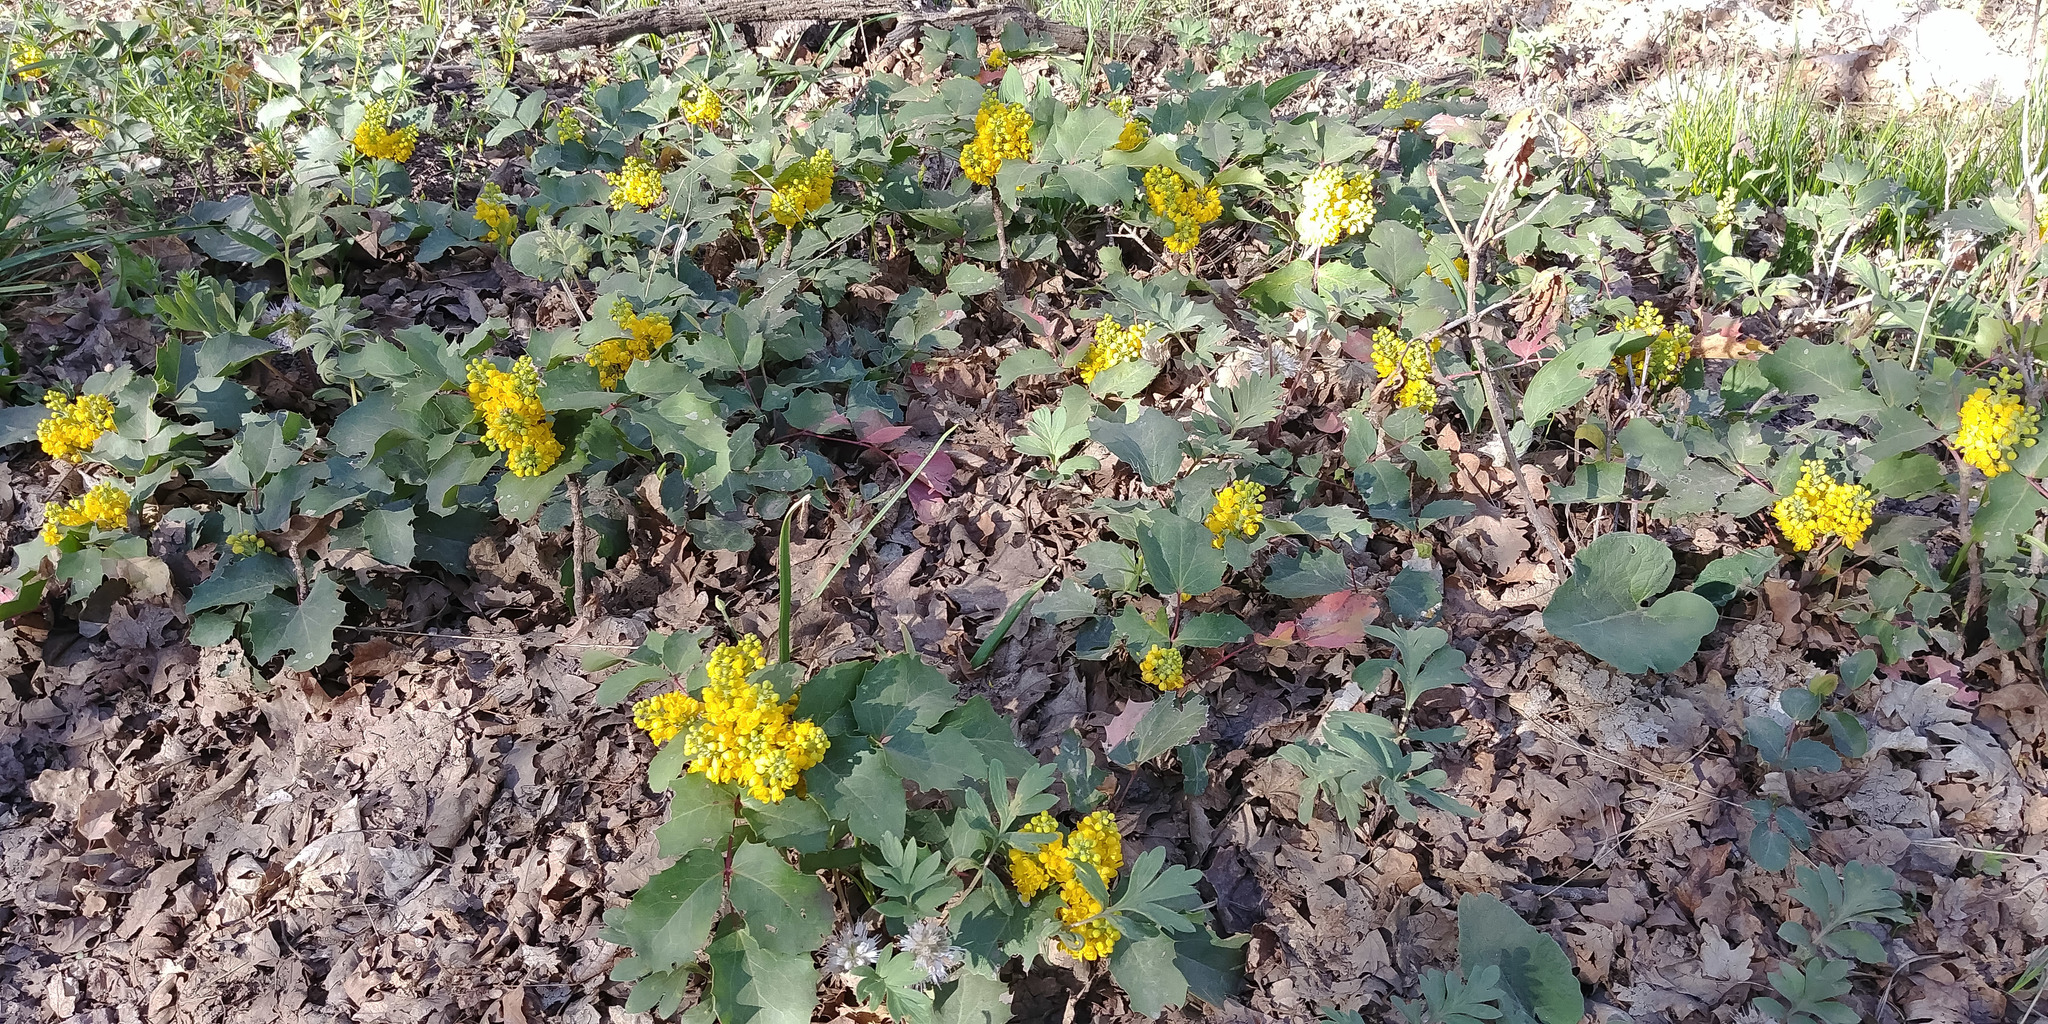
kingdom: Plantae
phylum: Tracheophyta
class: Magnoliopsida
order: Ranunculales
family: Berberidaceae
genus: Mahonia
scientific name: Mahonia repens
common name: Creeping oregon-grape
